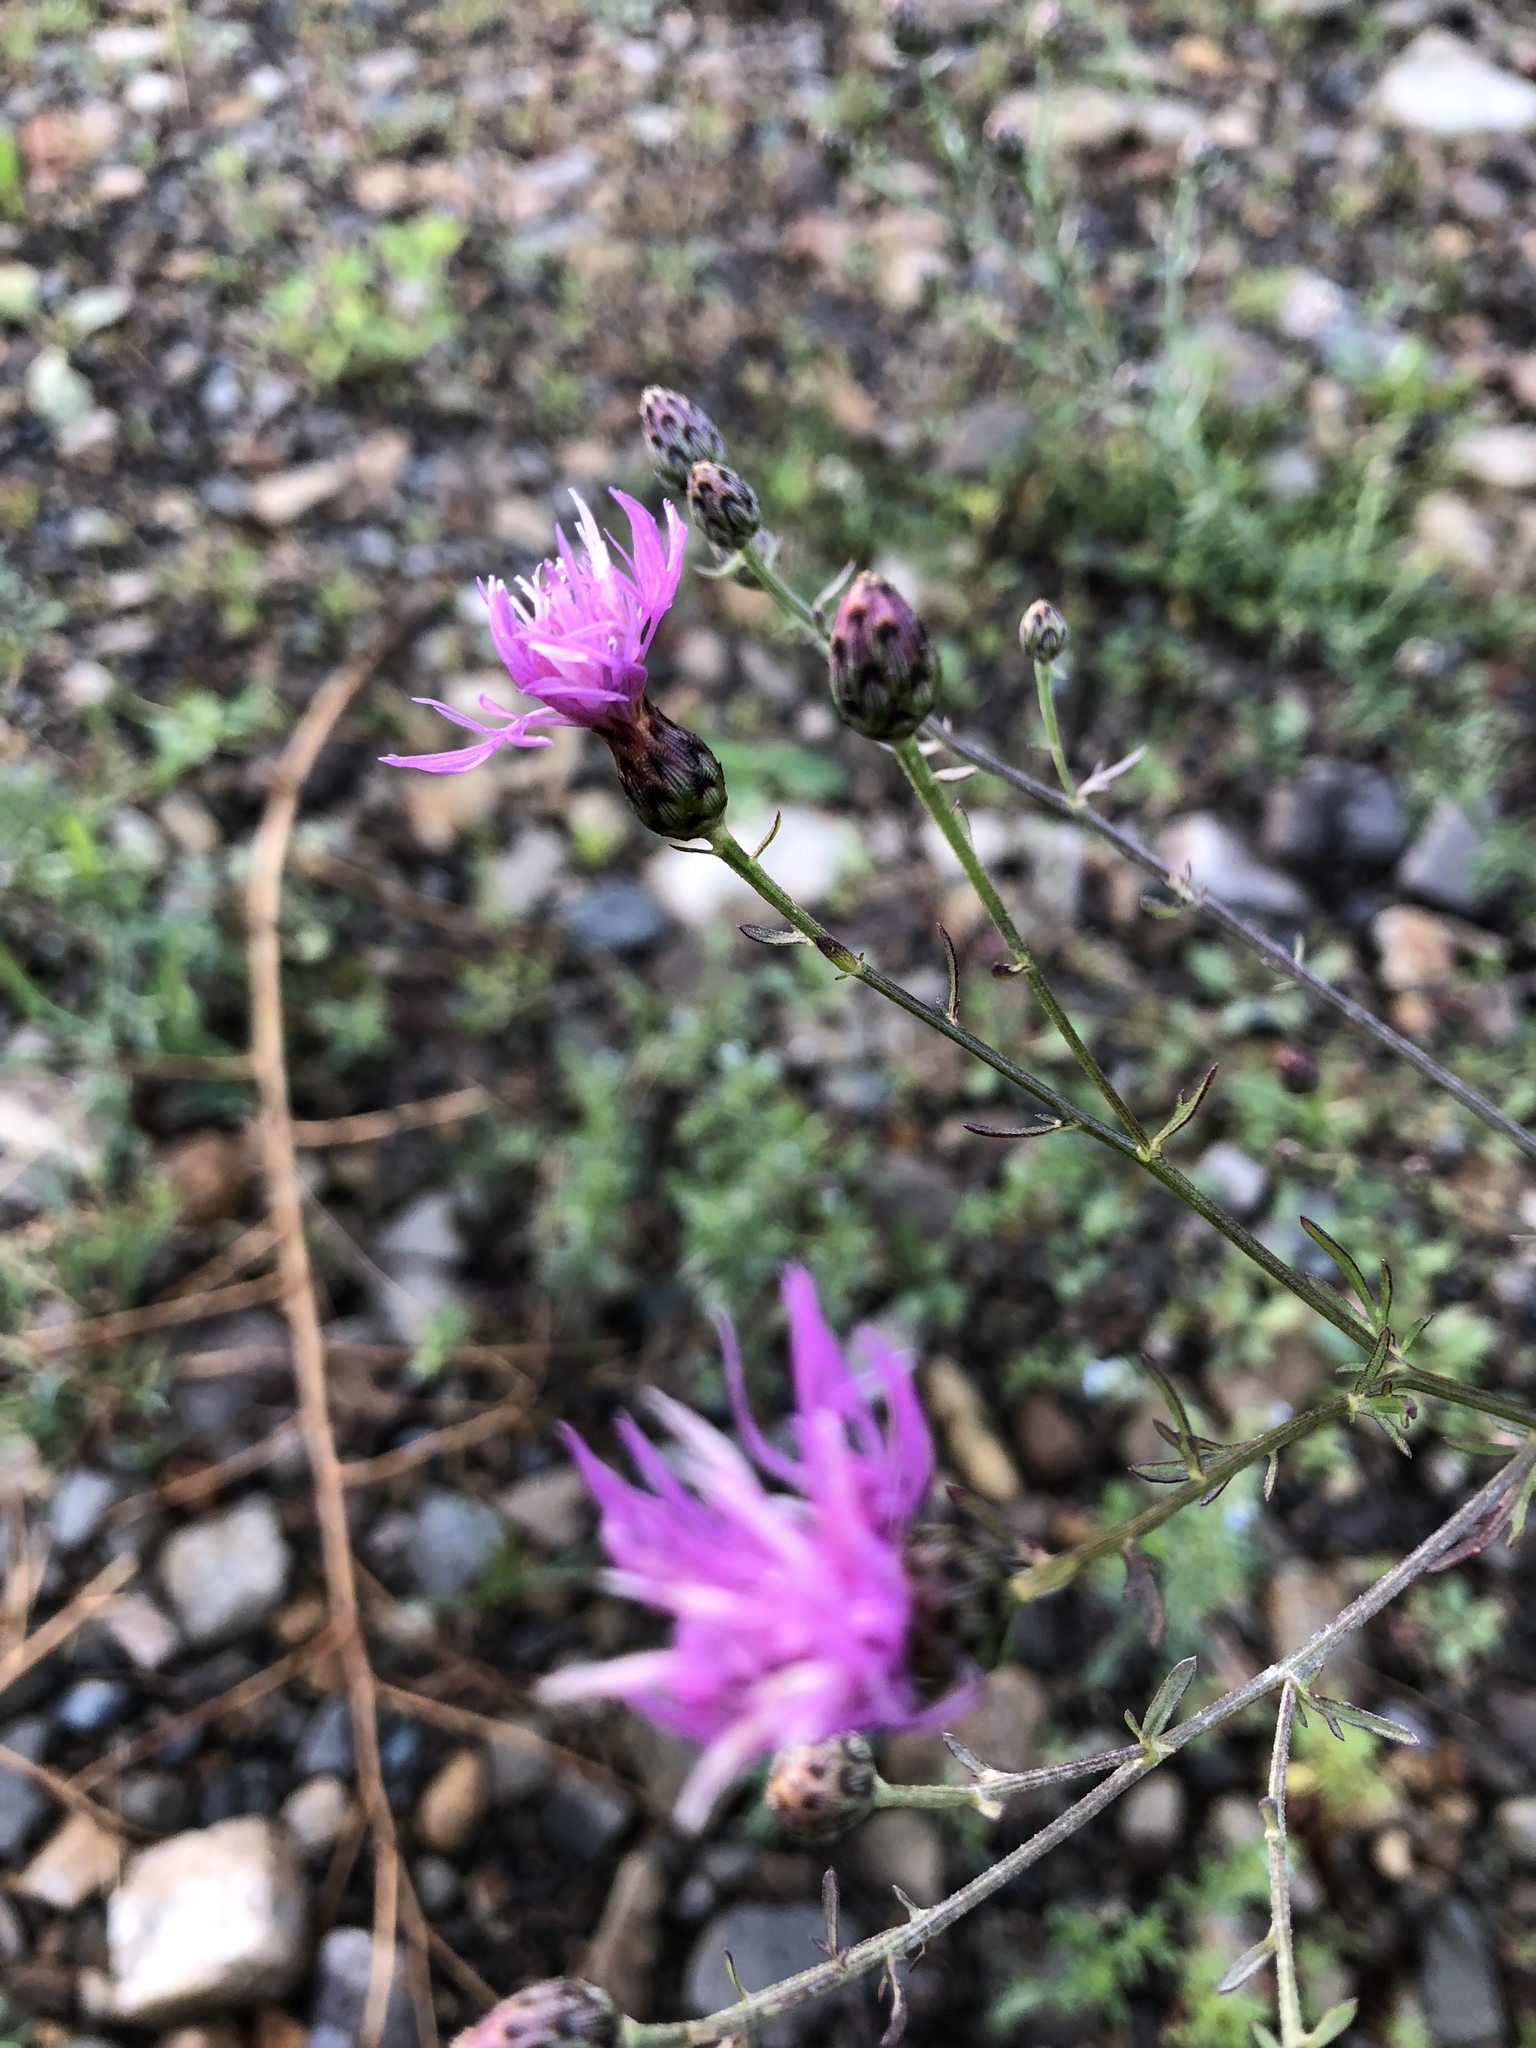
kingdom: Plantae
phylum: Tracheophyta
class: Magnoliopsida
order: Asterales
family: Asteraceae
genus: Centaurea
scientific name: Centaurea stoebe
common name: Spotted knapweed
